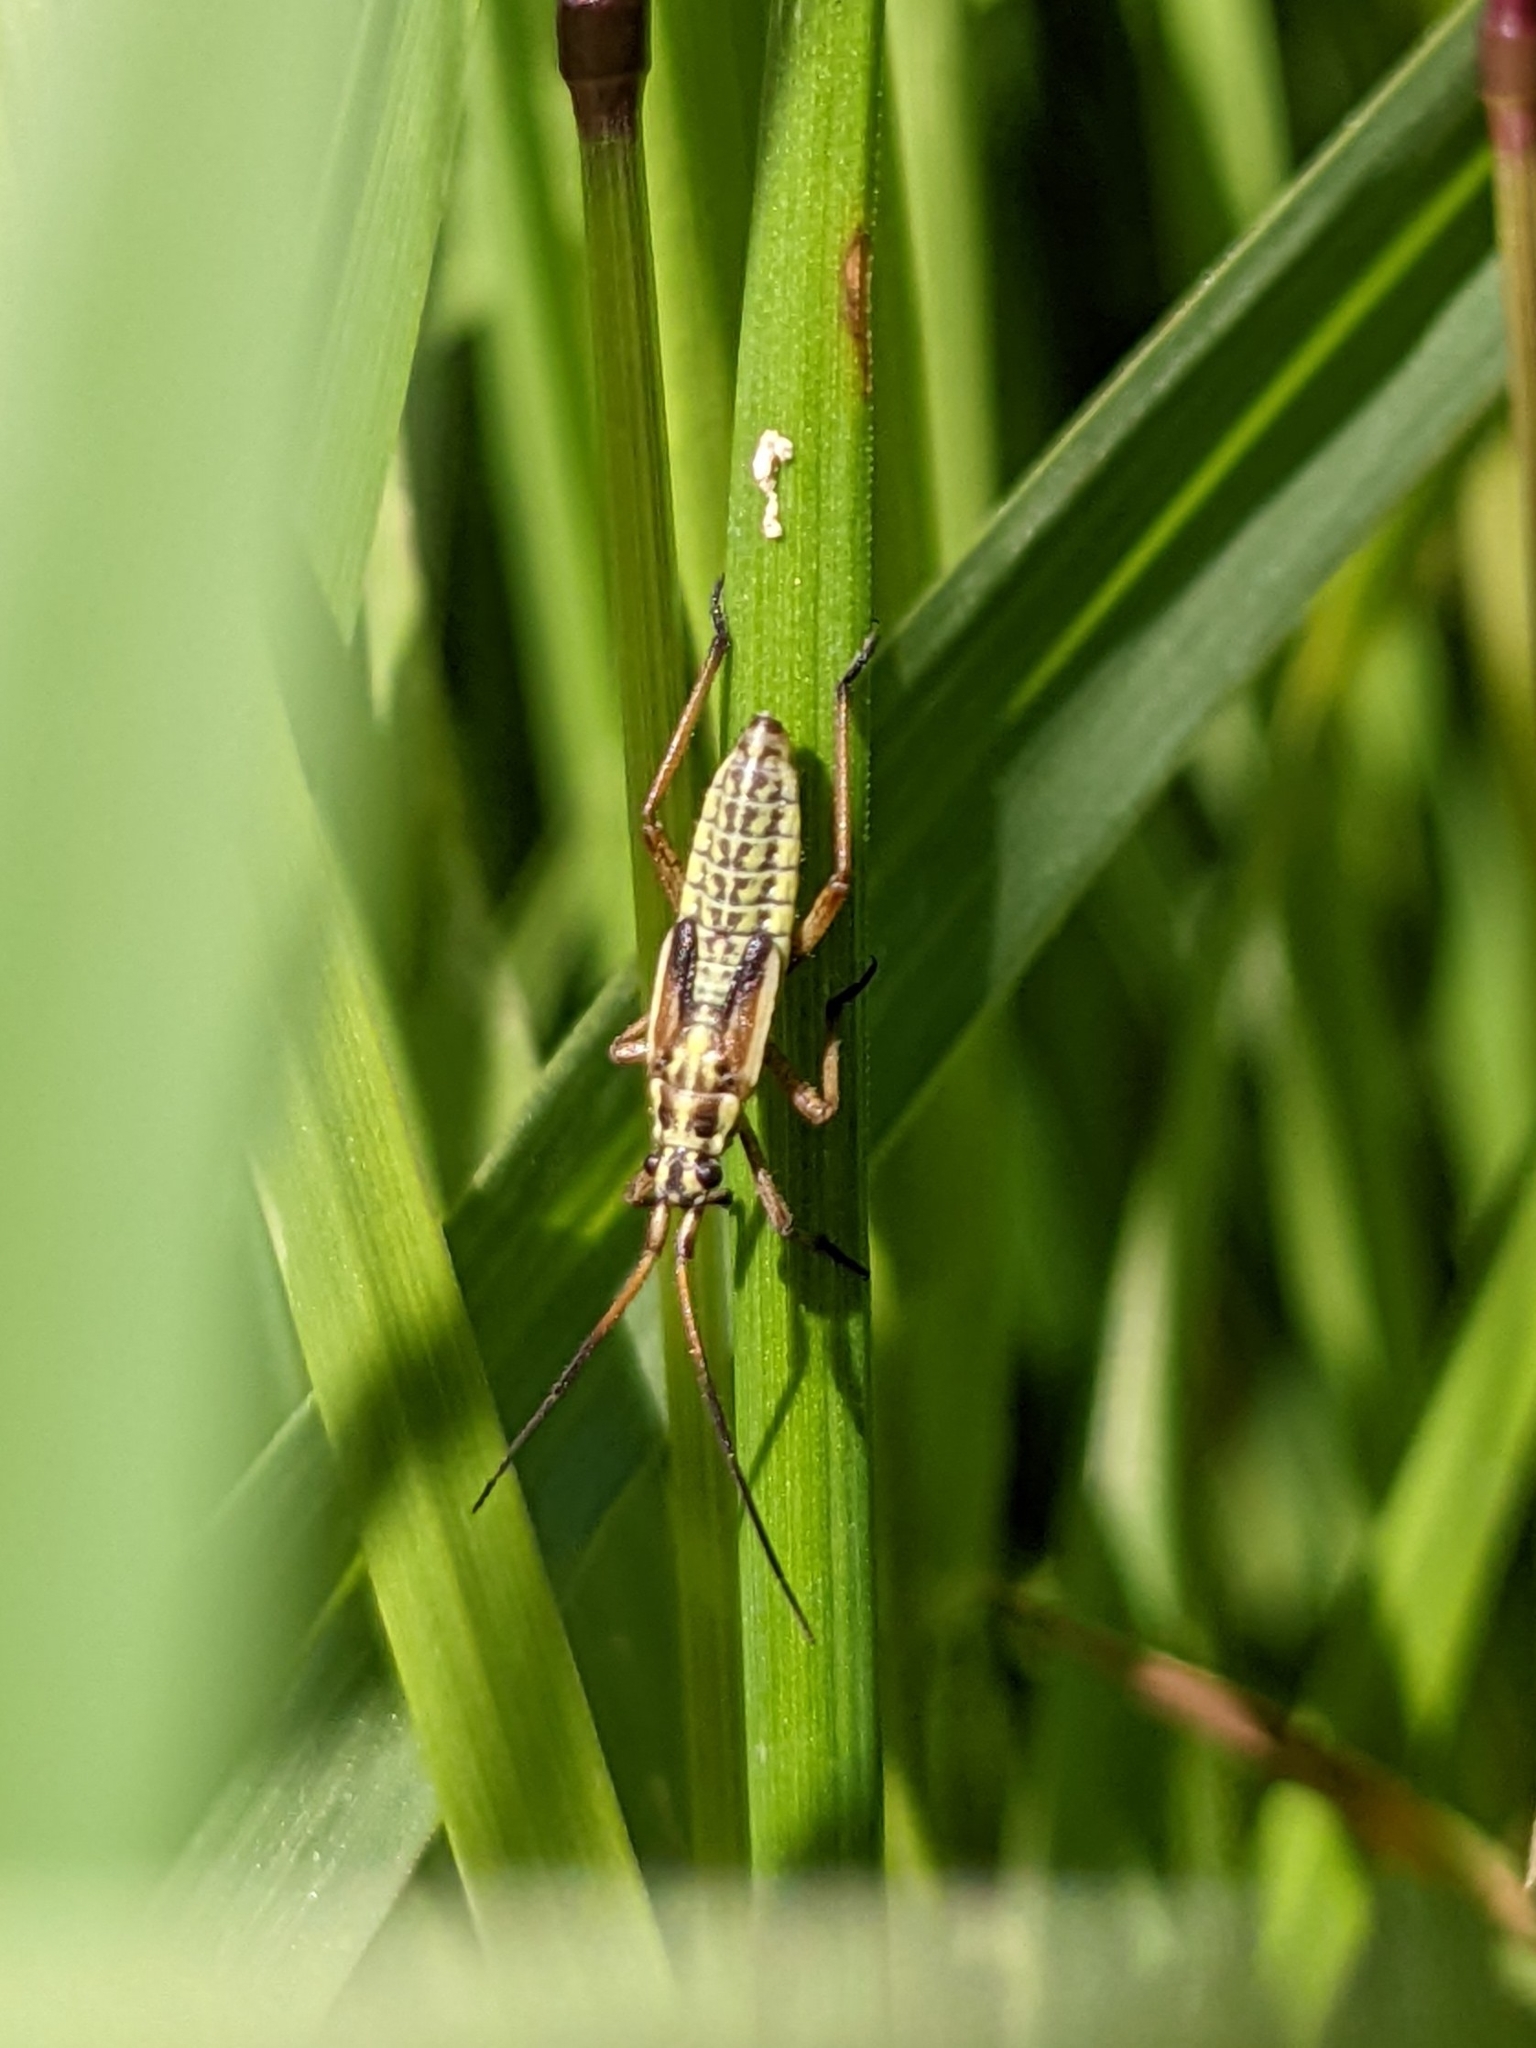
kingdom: Animalia
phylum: Arthropoda
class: Insecta
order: Hemiptera
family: Miridae
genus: Leptopterna
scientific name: Leptopterna dolabrata
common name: Meadow plant bug
